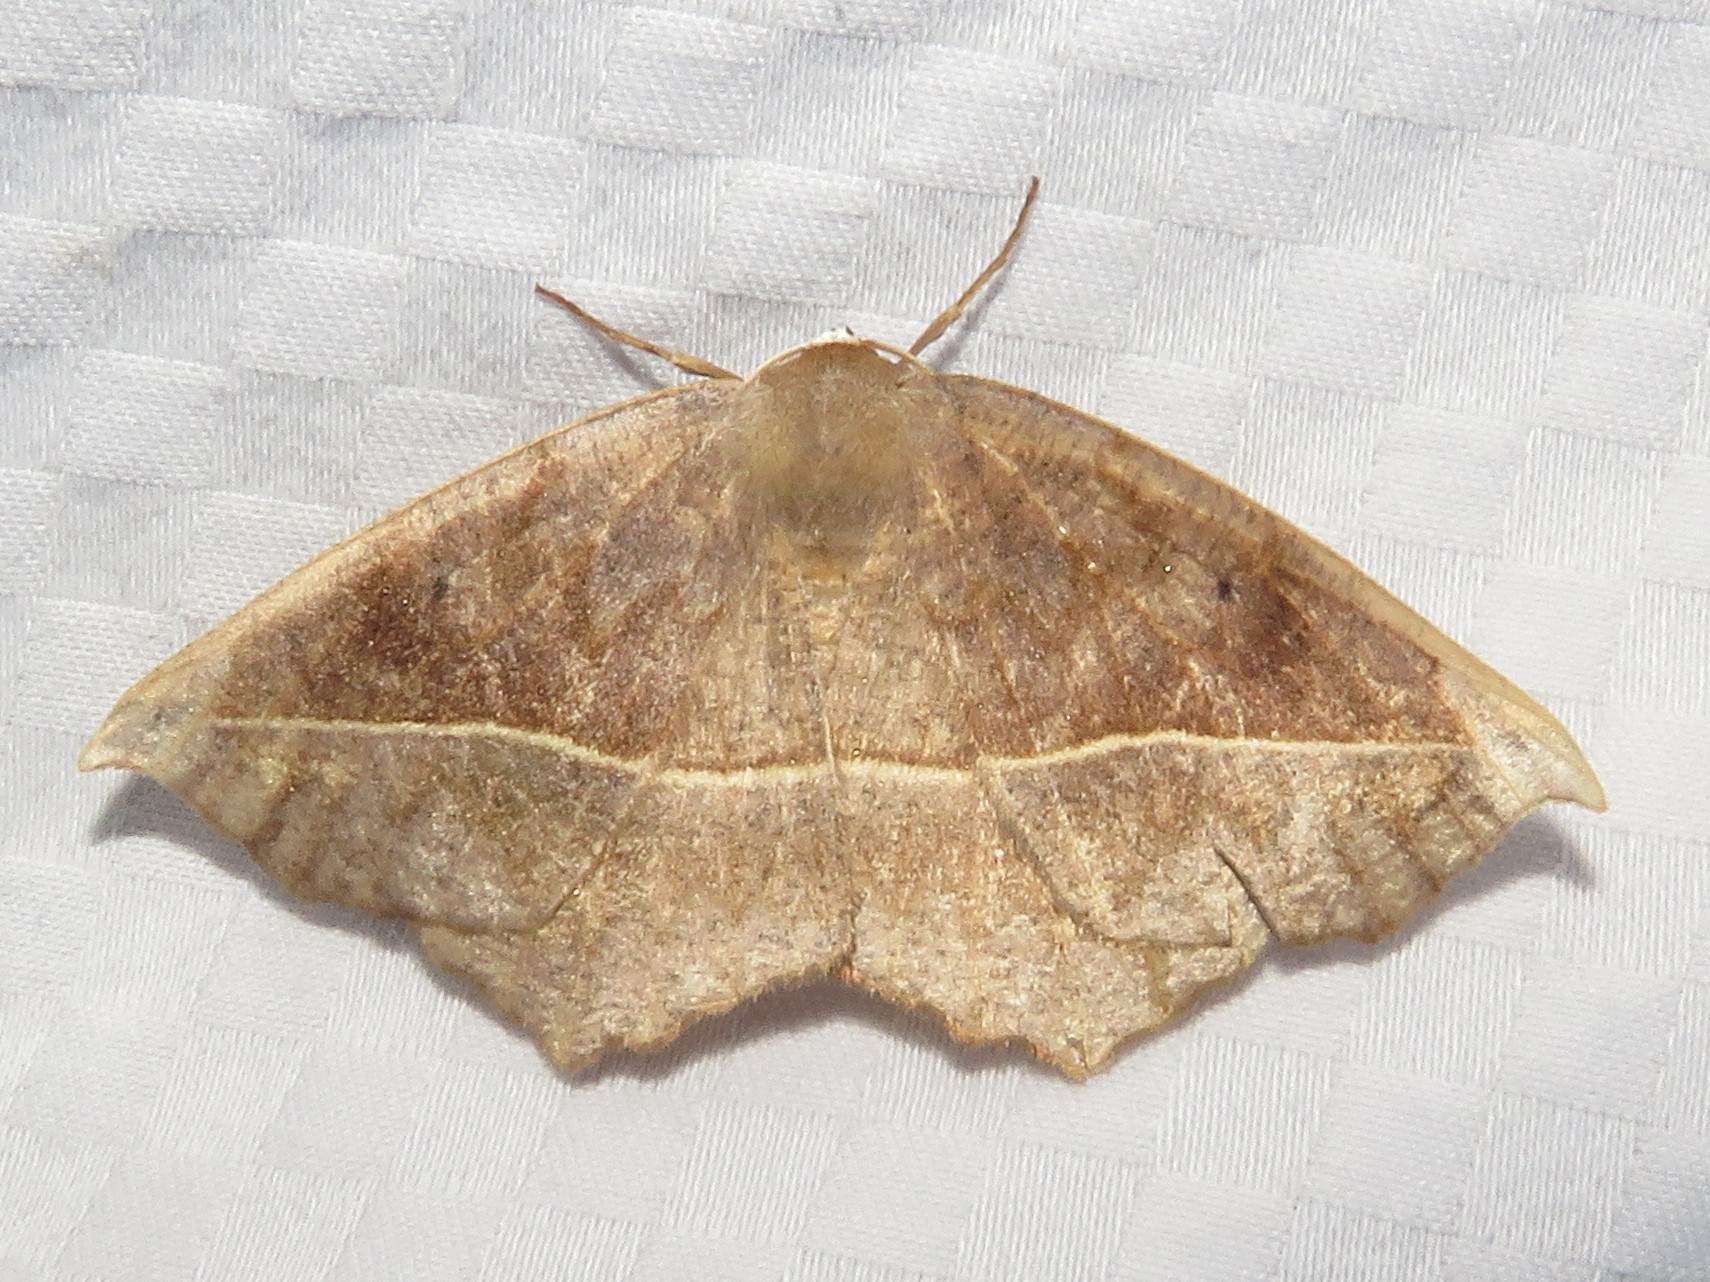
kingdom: Animalia
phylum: Arthropoda
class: Insecta
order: Lepidoptera
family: Geometridae
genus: Eutrapela
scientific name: Eutrapela clemataria
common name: Curved-toothed geometer
